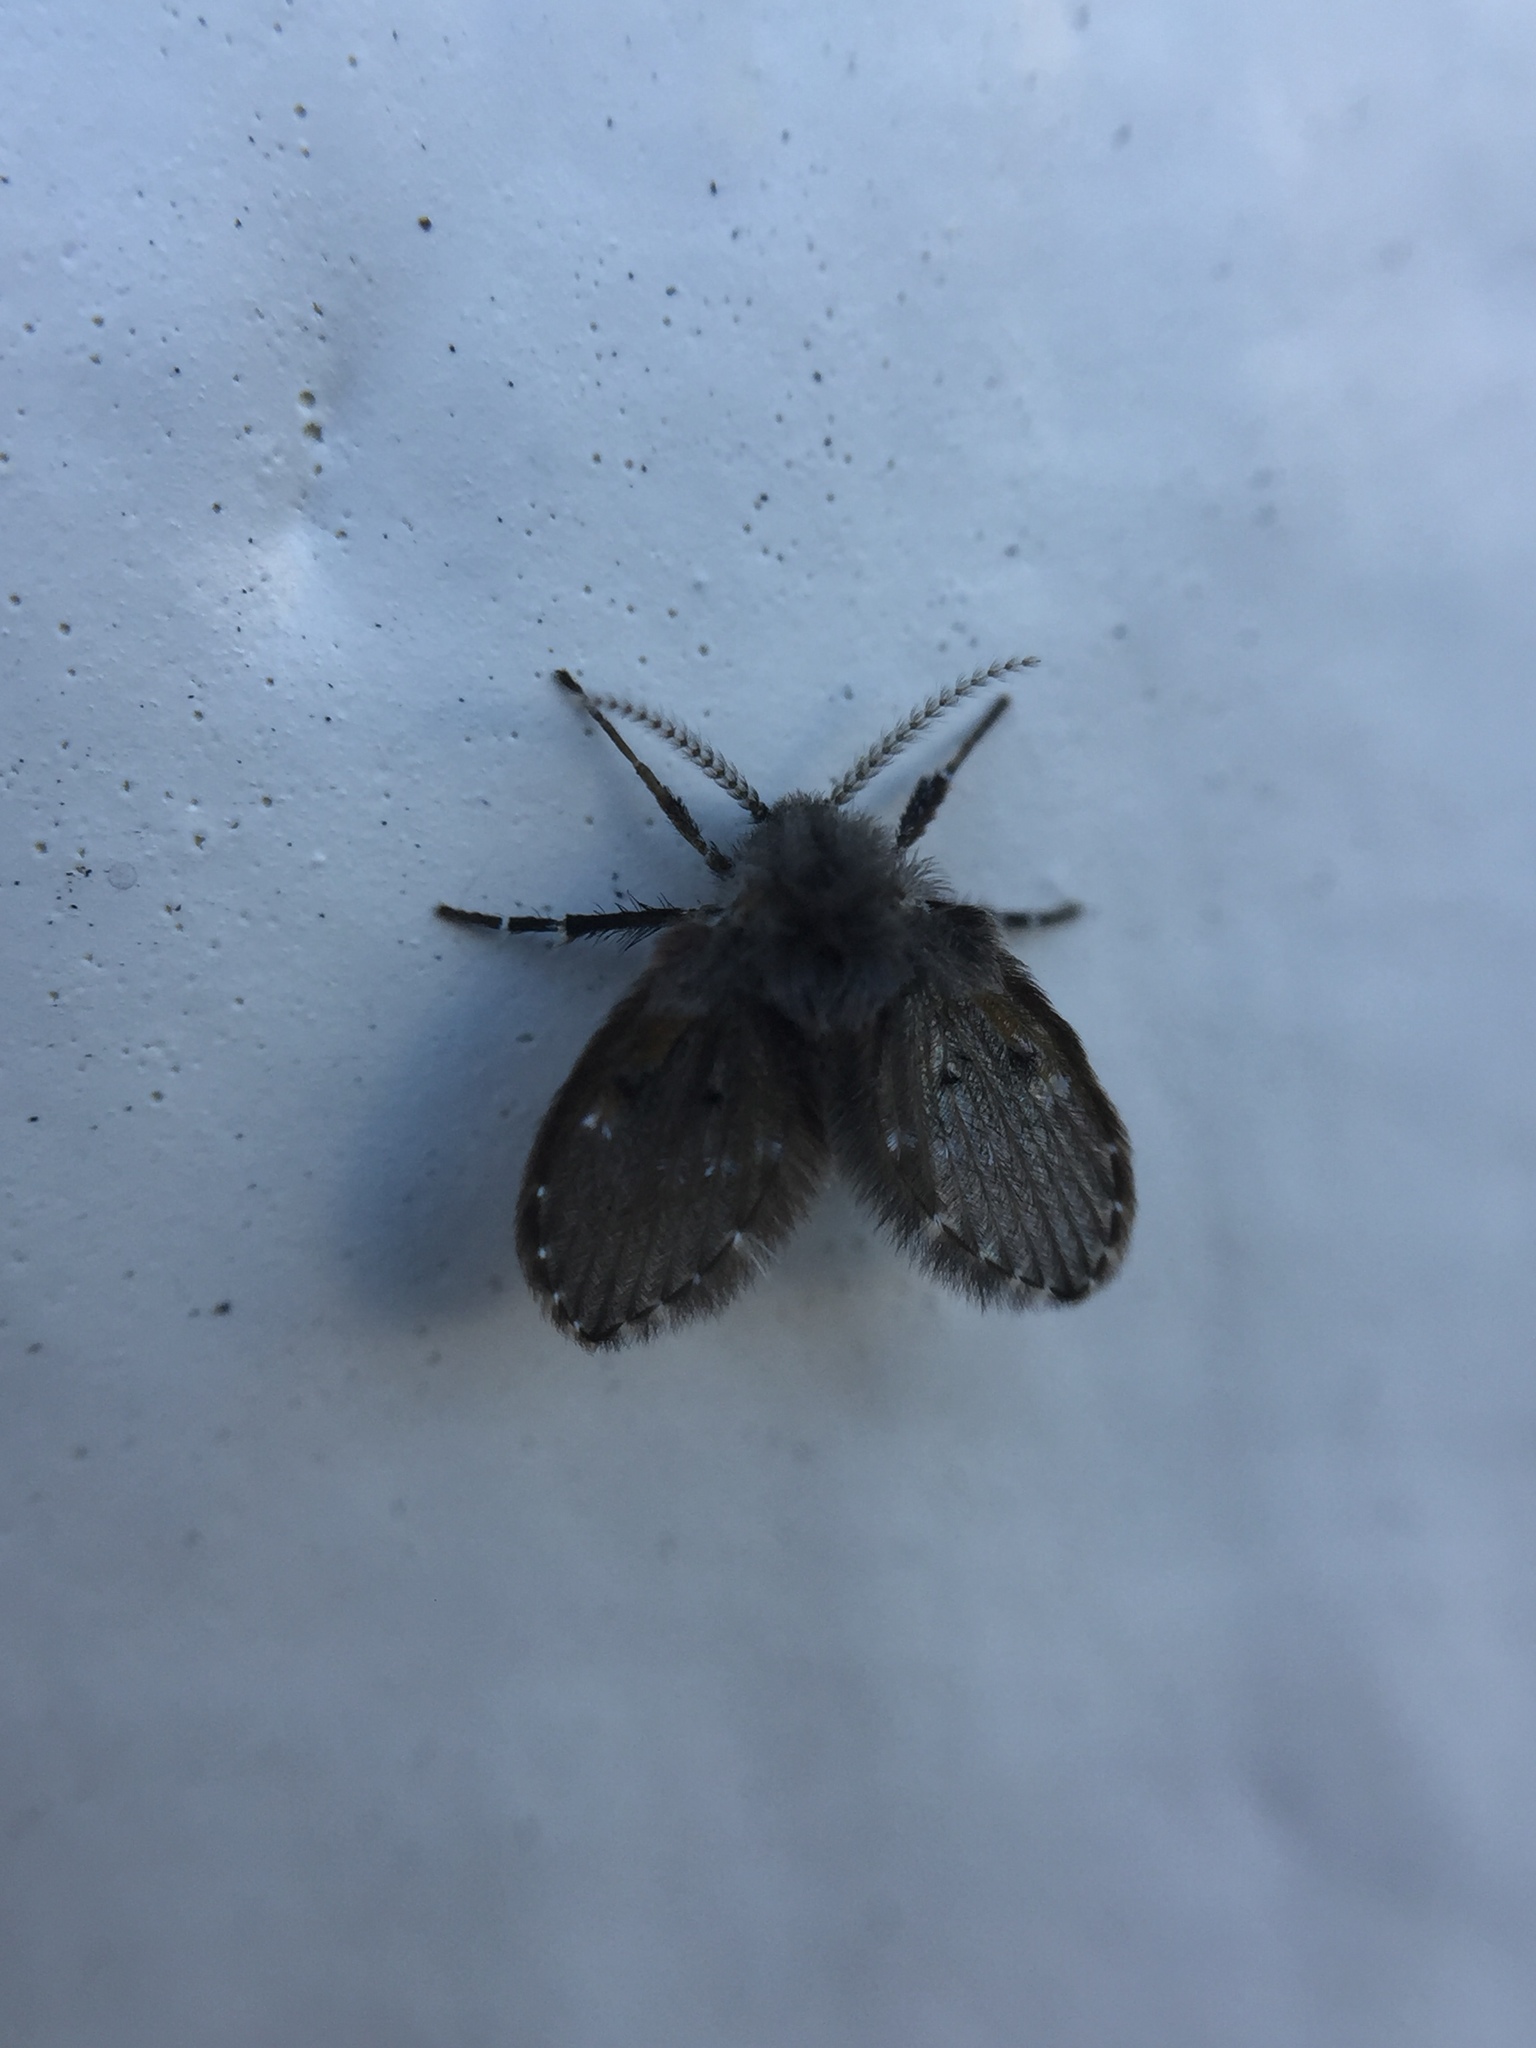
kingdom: Animalia
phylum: Arthropoda
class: Insecta
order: Diptera
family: Psychodidae
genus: Clogmia
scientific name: Clogmia albipunctatus
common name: White-spotted moth fly
